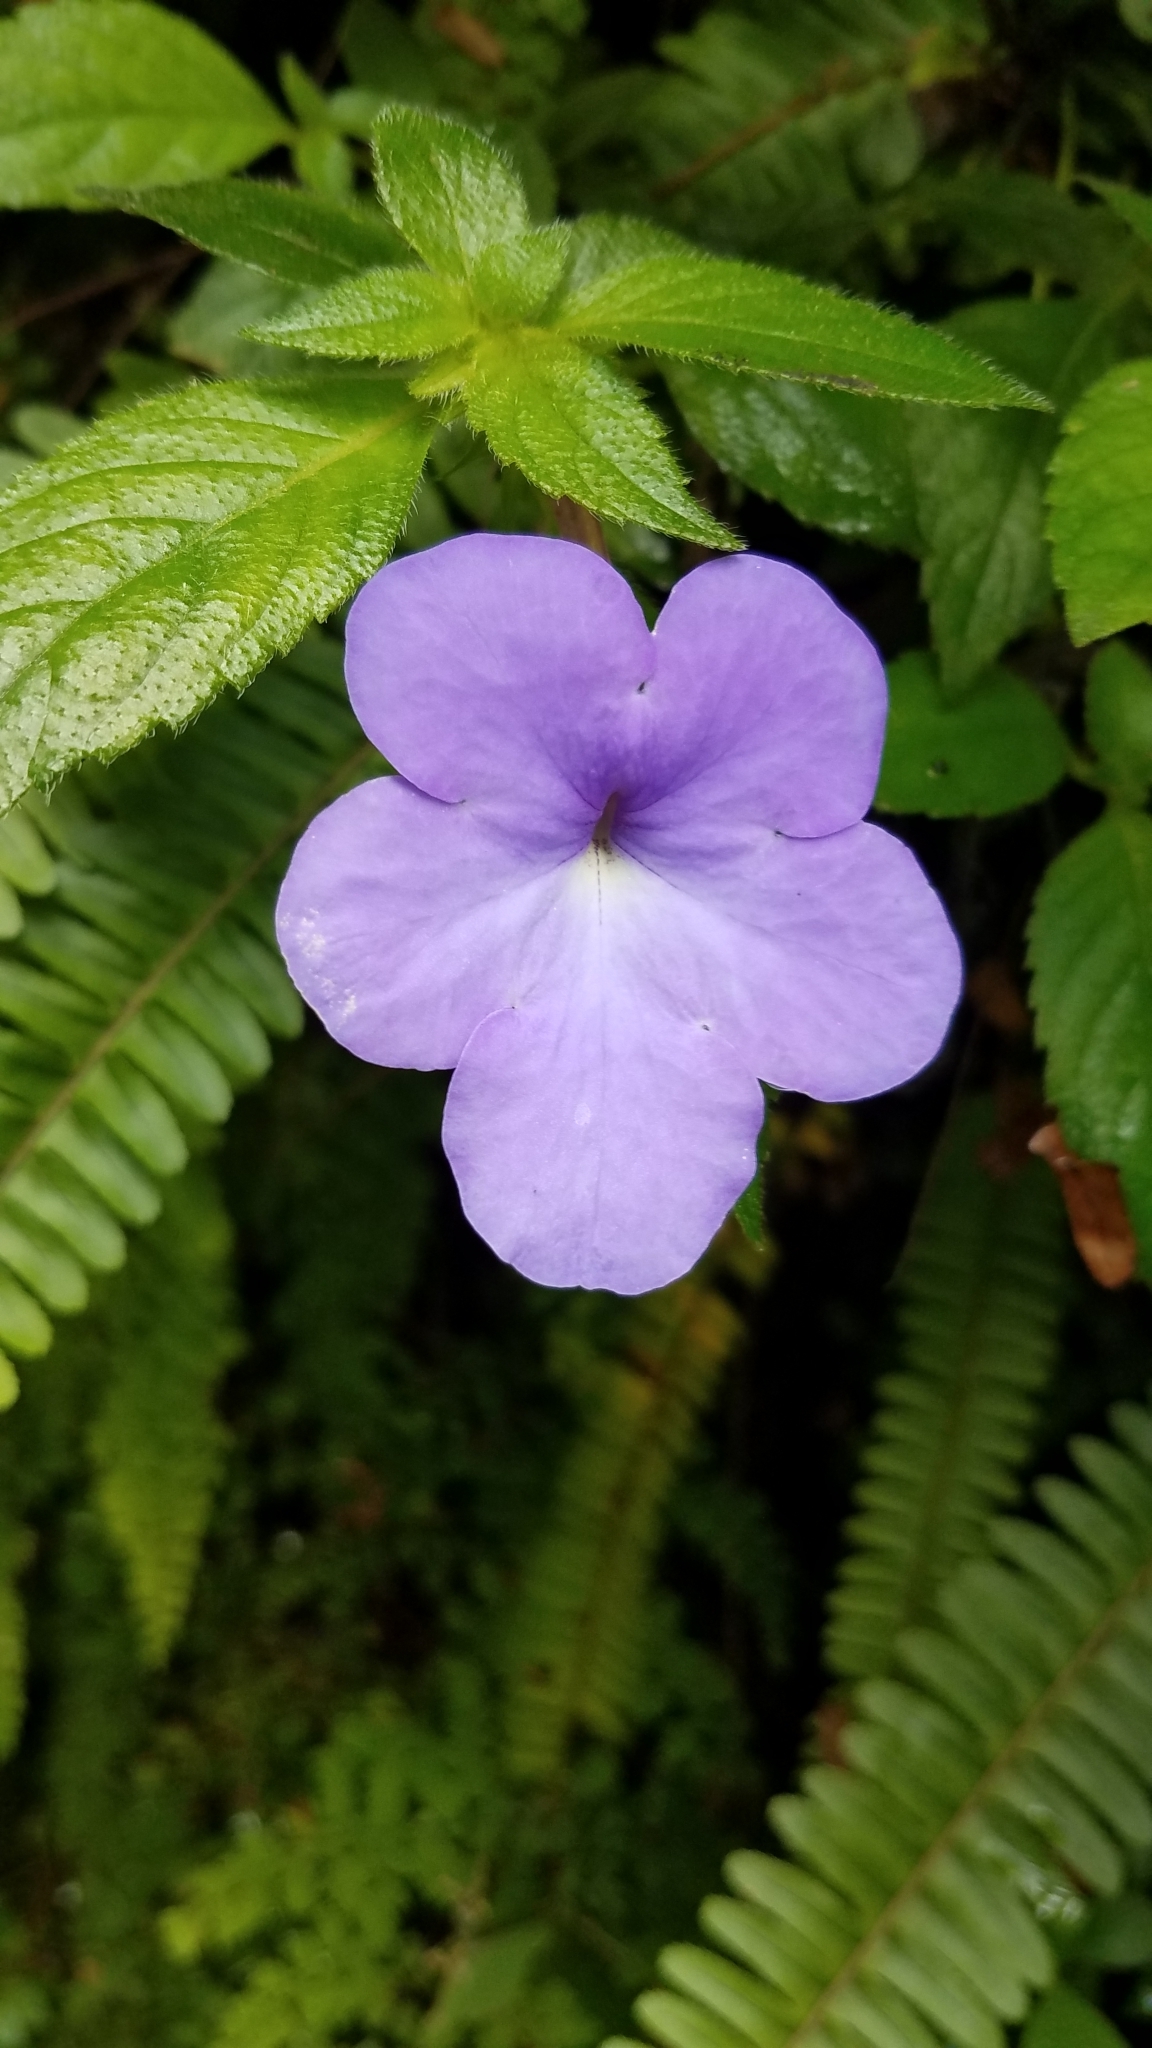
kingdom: Plantae
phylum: Tracheophyta
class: Magnoliopsida
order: Lamiales
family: Gesneriaceae
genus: Achimenes
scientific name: Achimenes longiflora
